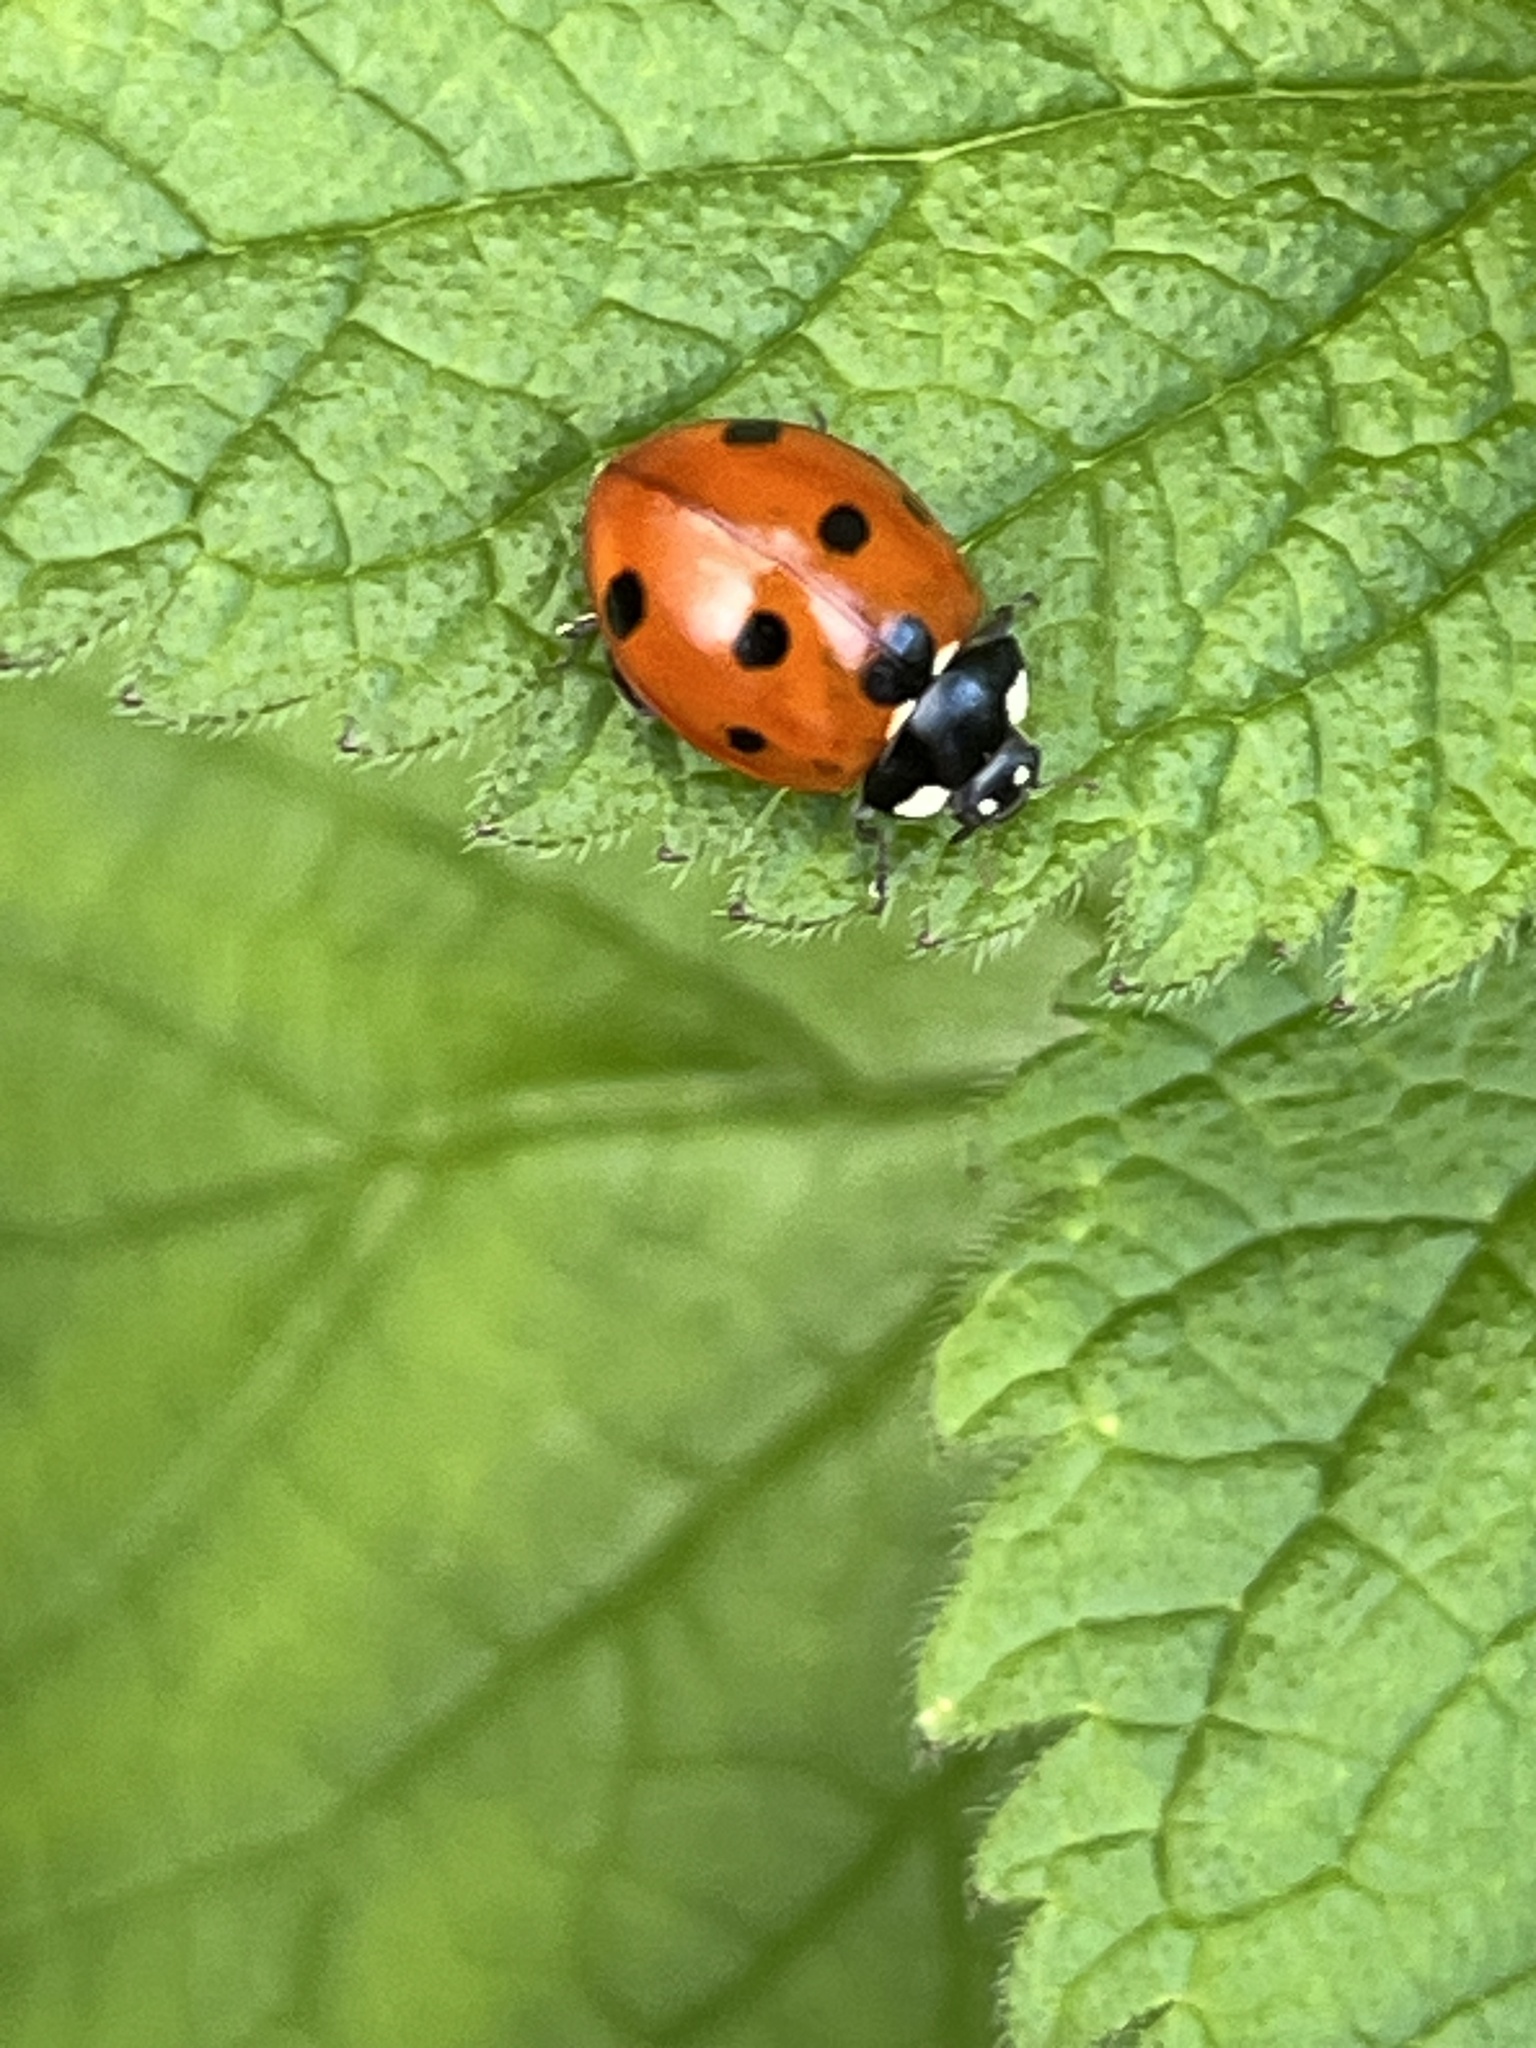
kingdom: Animalia
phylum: Arthropoda
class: Insecta
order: Coleoptera
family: Coccinellidae
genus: Coccinella
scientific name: Coccinella septempunctata
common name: Sevenspotted lady beetle
